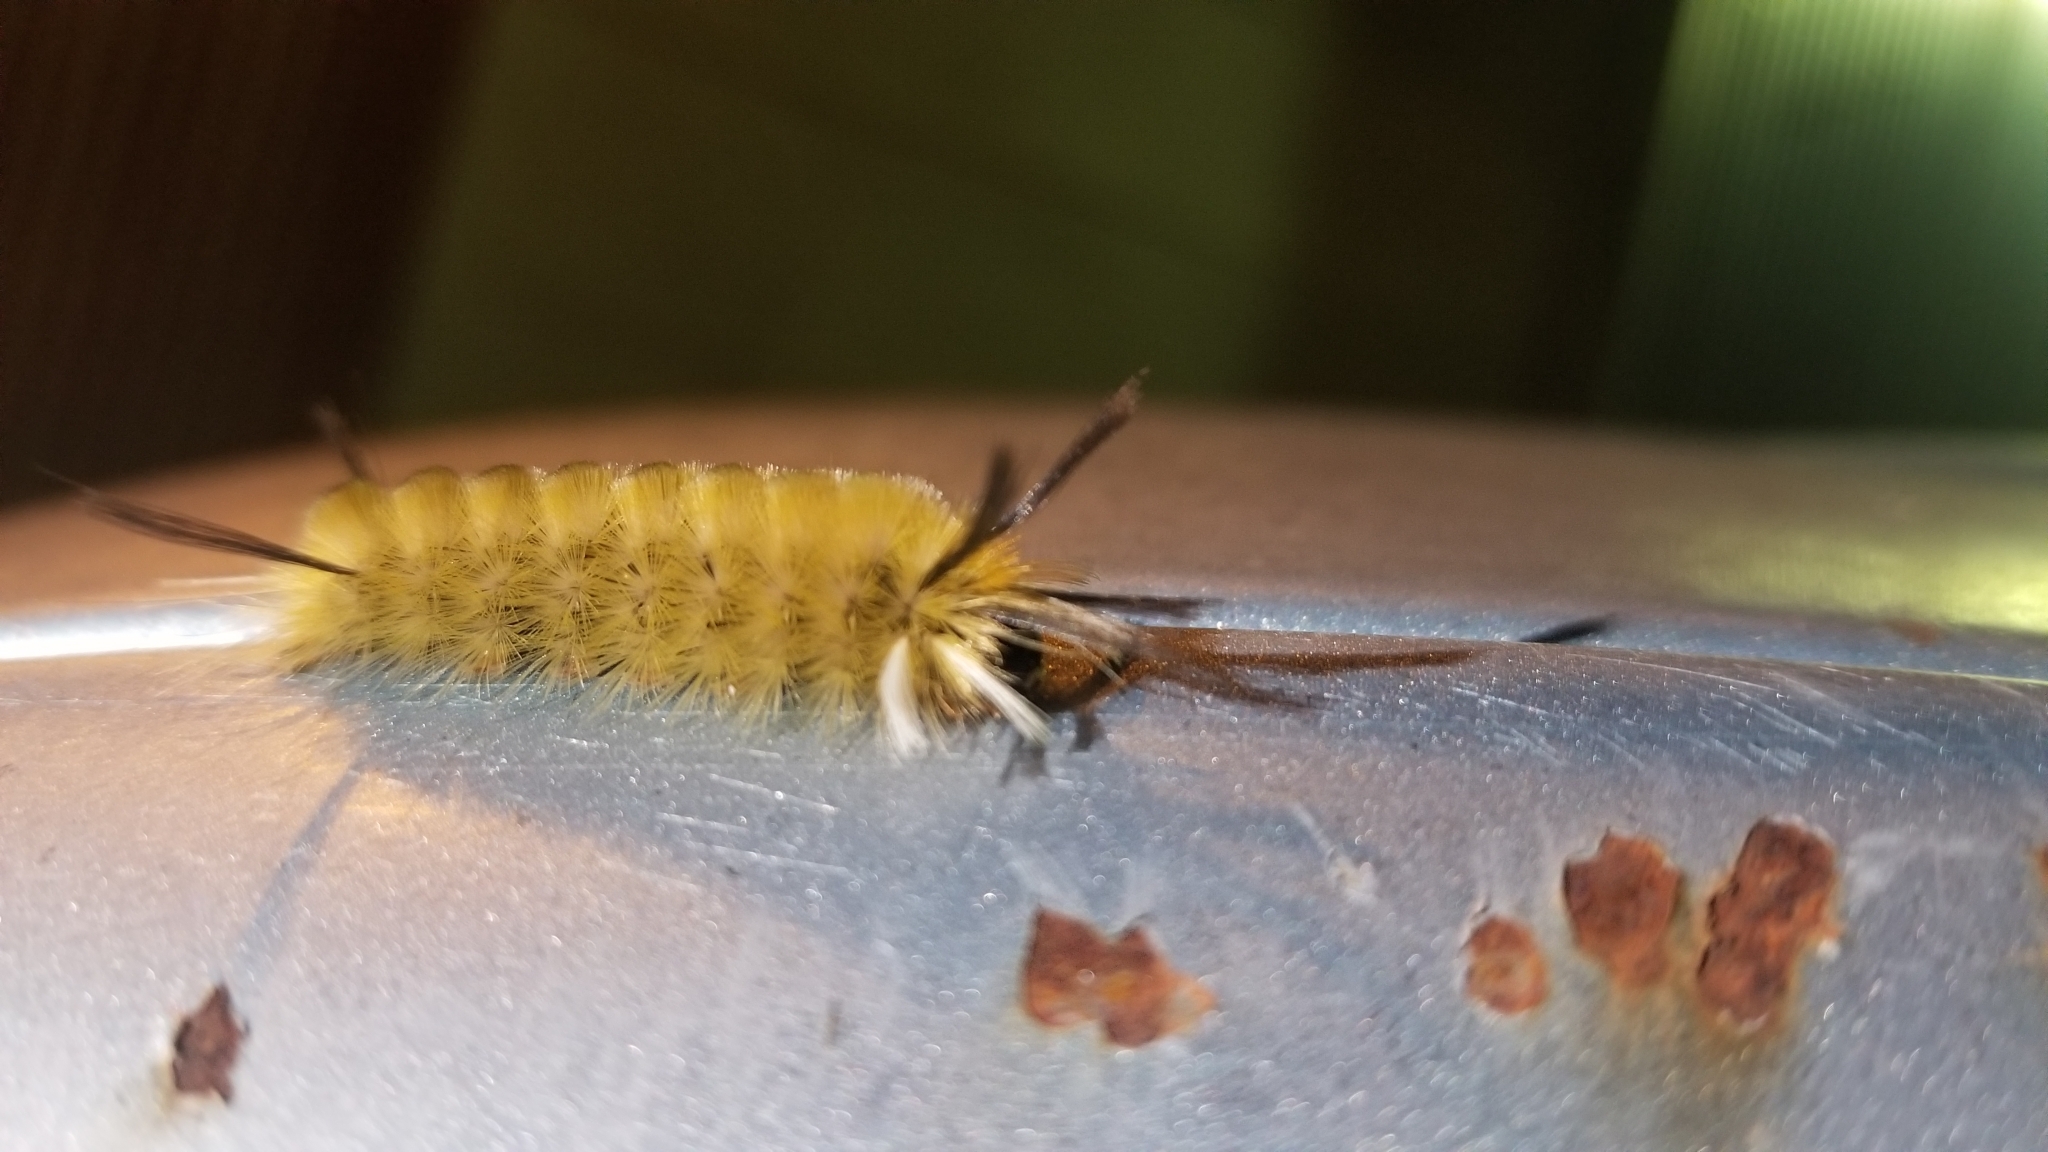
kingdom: Animalia
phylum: Arthropoda
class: Insecta
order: Lepidoptera
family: Erebidae
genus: Halysidota
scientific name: Halysidota tessellaris
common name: Banded tussock moth
